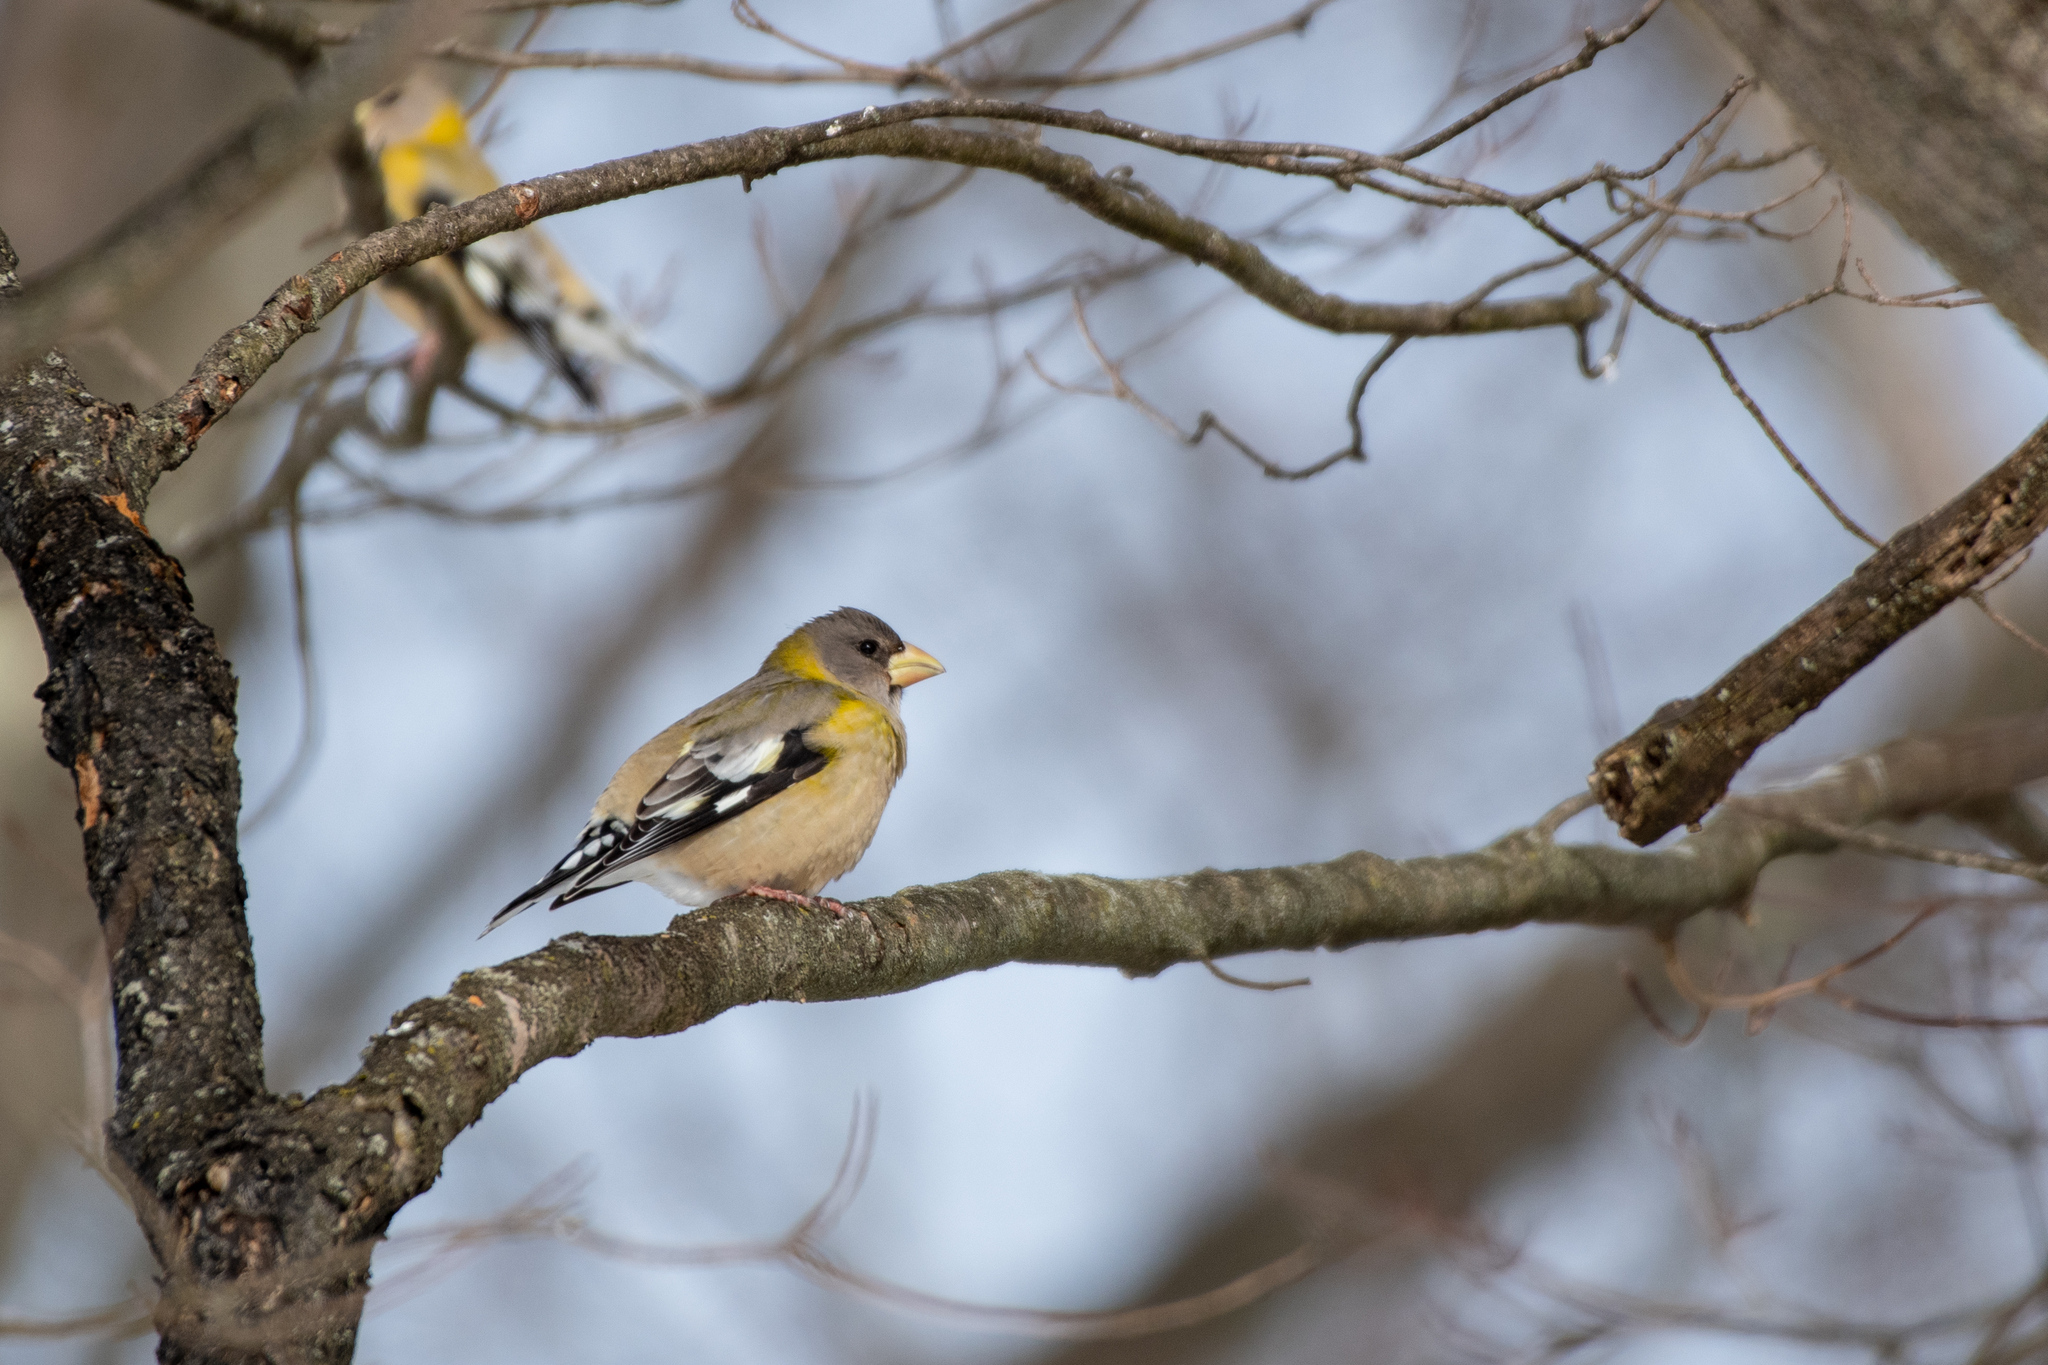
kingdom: Animalia
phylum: Chordata
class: Aves
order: Passeriformes
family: Fringillidae
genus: Hesperiphona
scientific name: Hesperiphona vespertina
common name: Evening grosbeak
